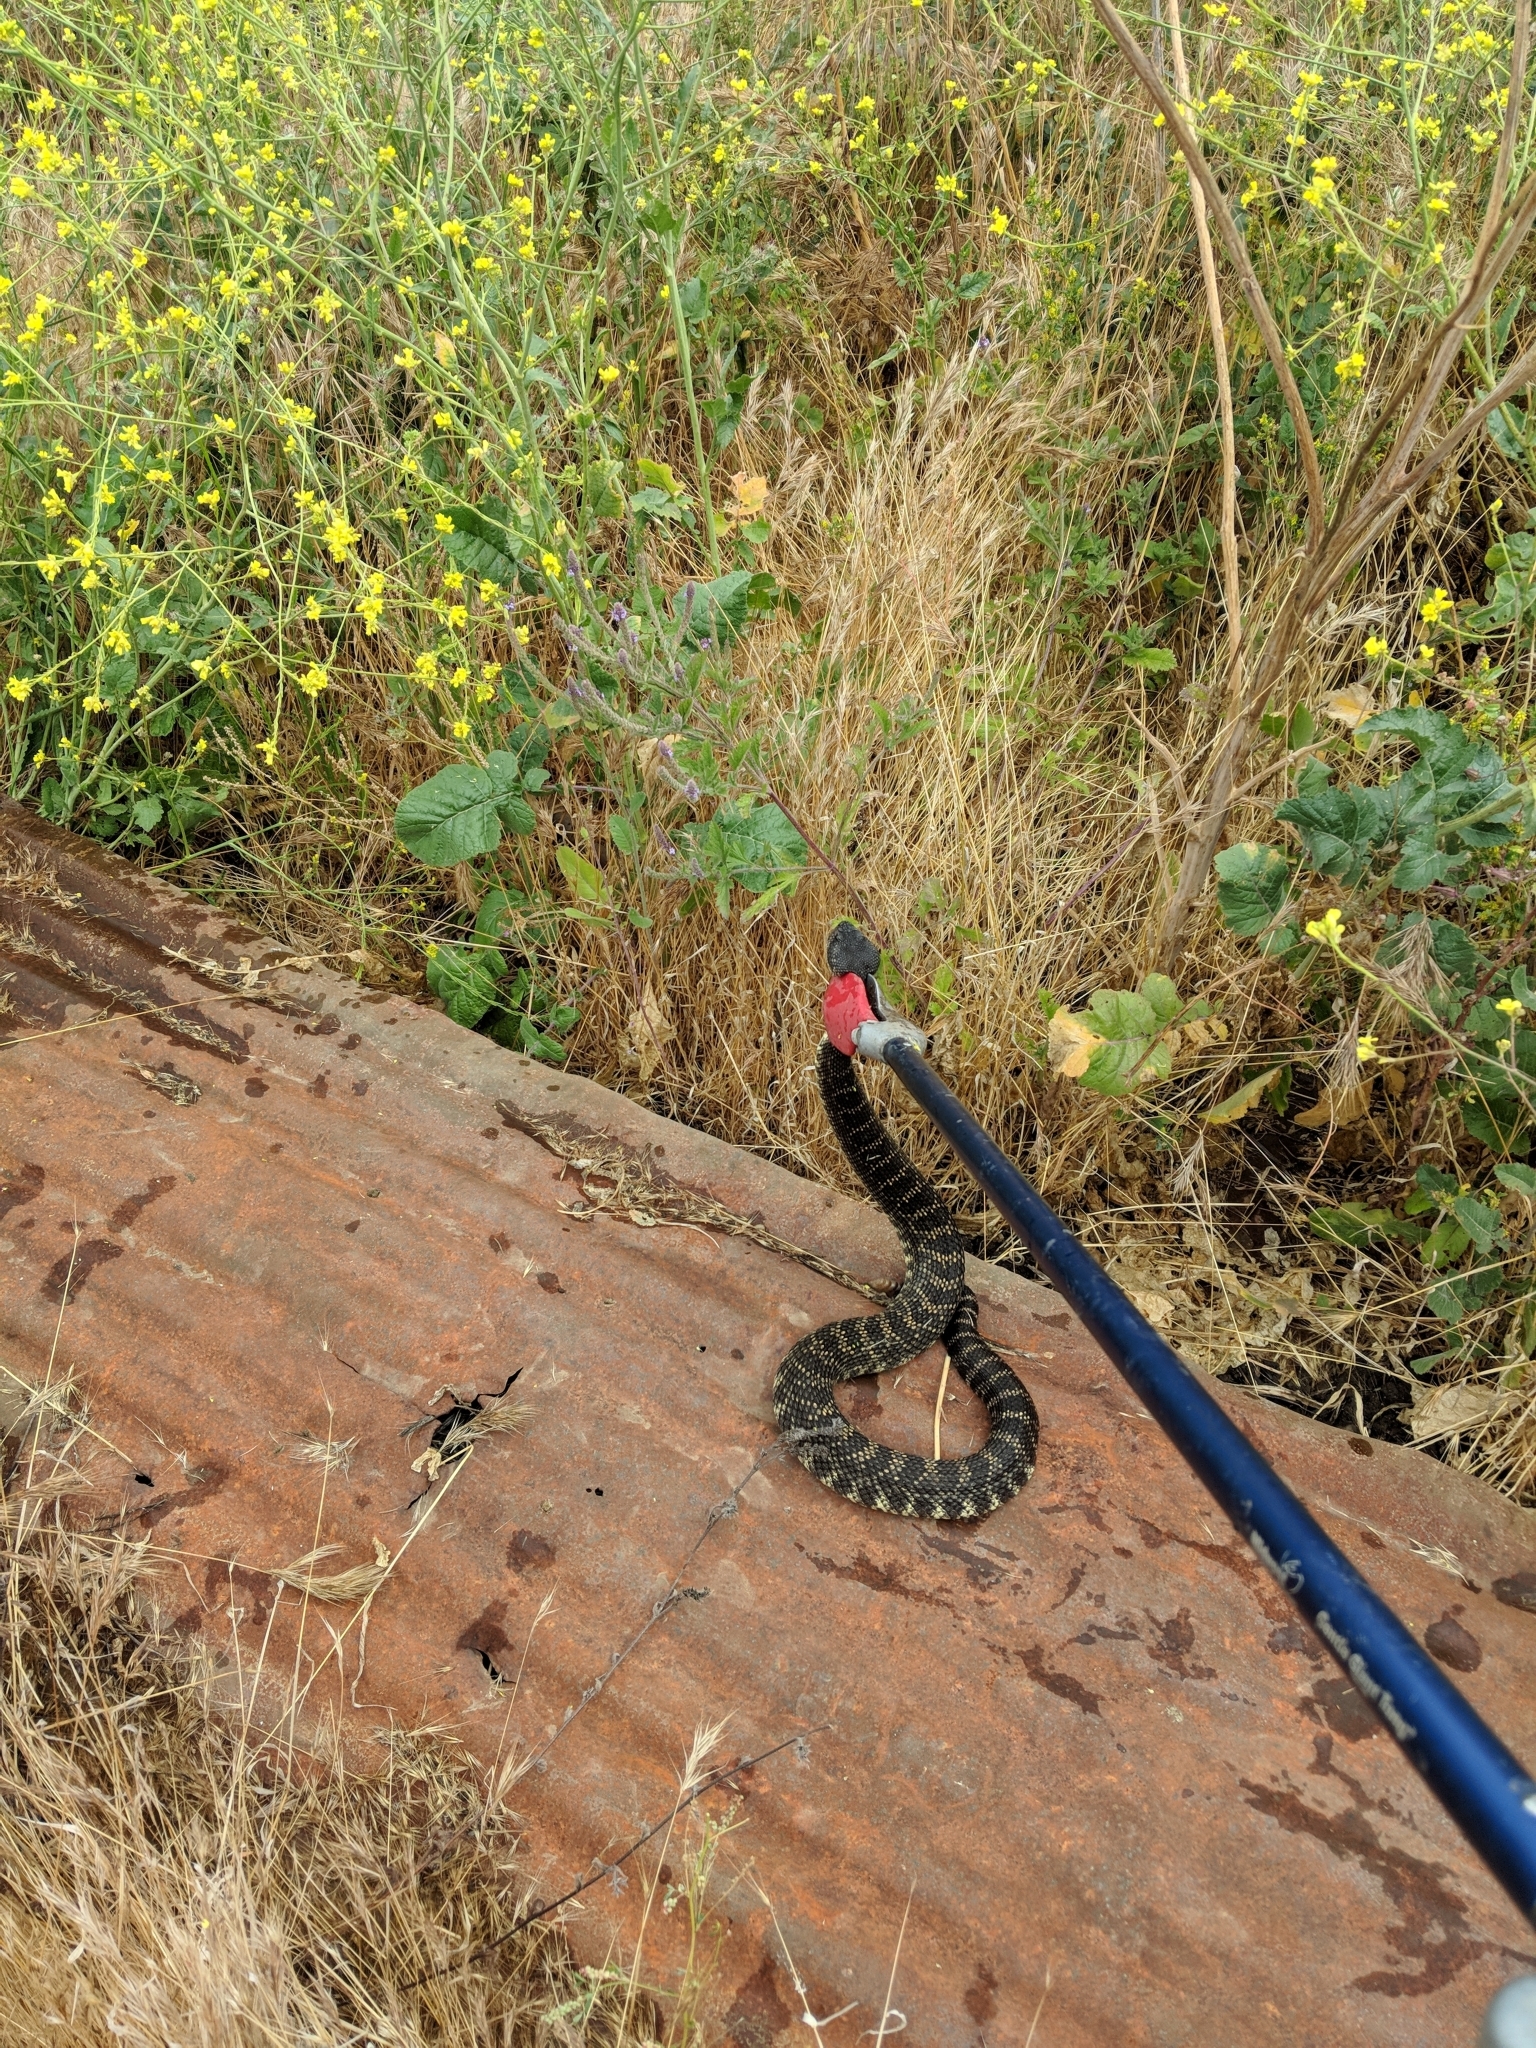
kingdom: Animalia
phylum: Chordata
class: Squamata
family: Viperidae
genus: Crotalus
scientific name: Crotalus oreganus
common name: Abyssus
